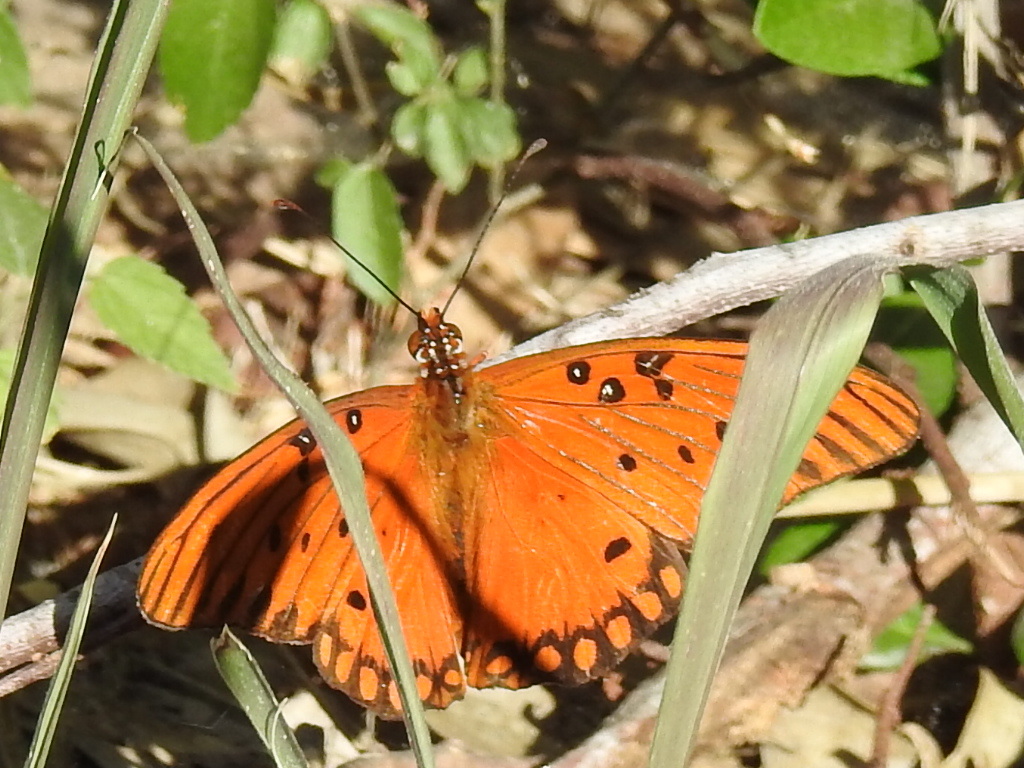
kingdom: Animalia
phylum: Arthropoda
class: Insecta
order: Lepidoptera
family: Nymphalidae
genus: Dione
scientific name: Dione vanillae
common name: Gulf fritillary
